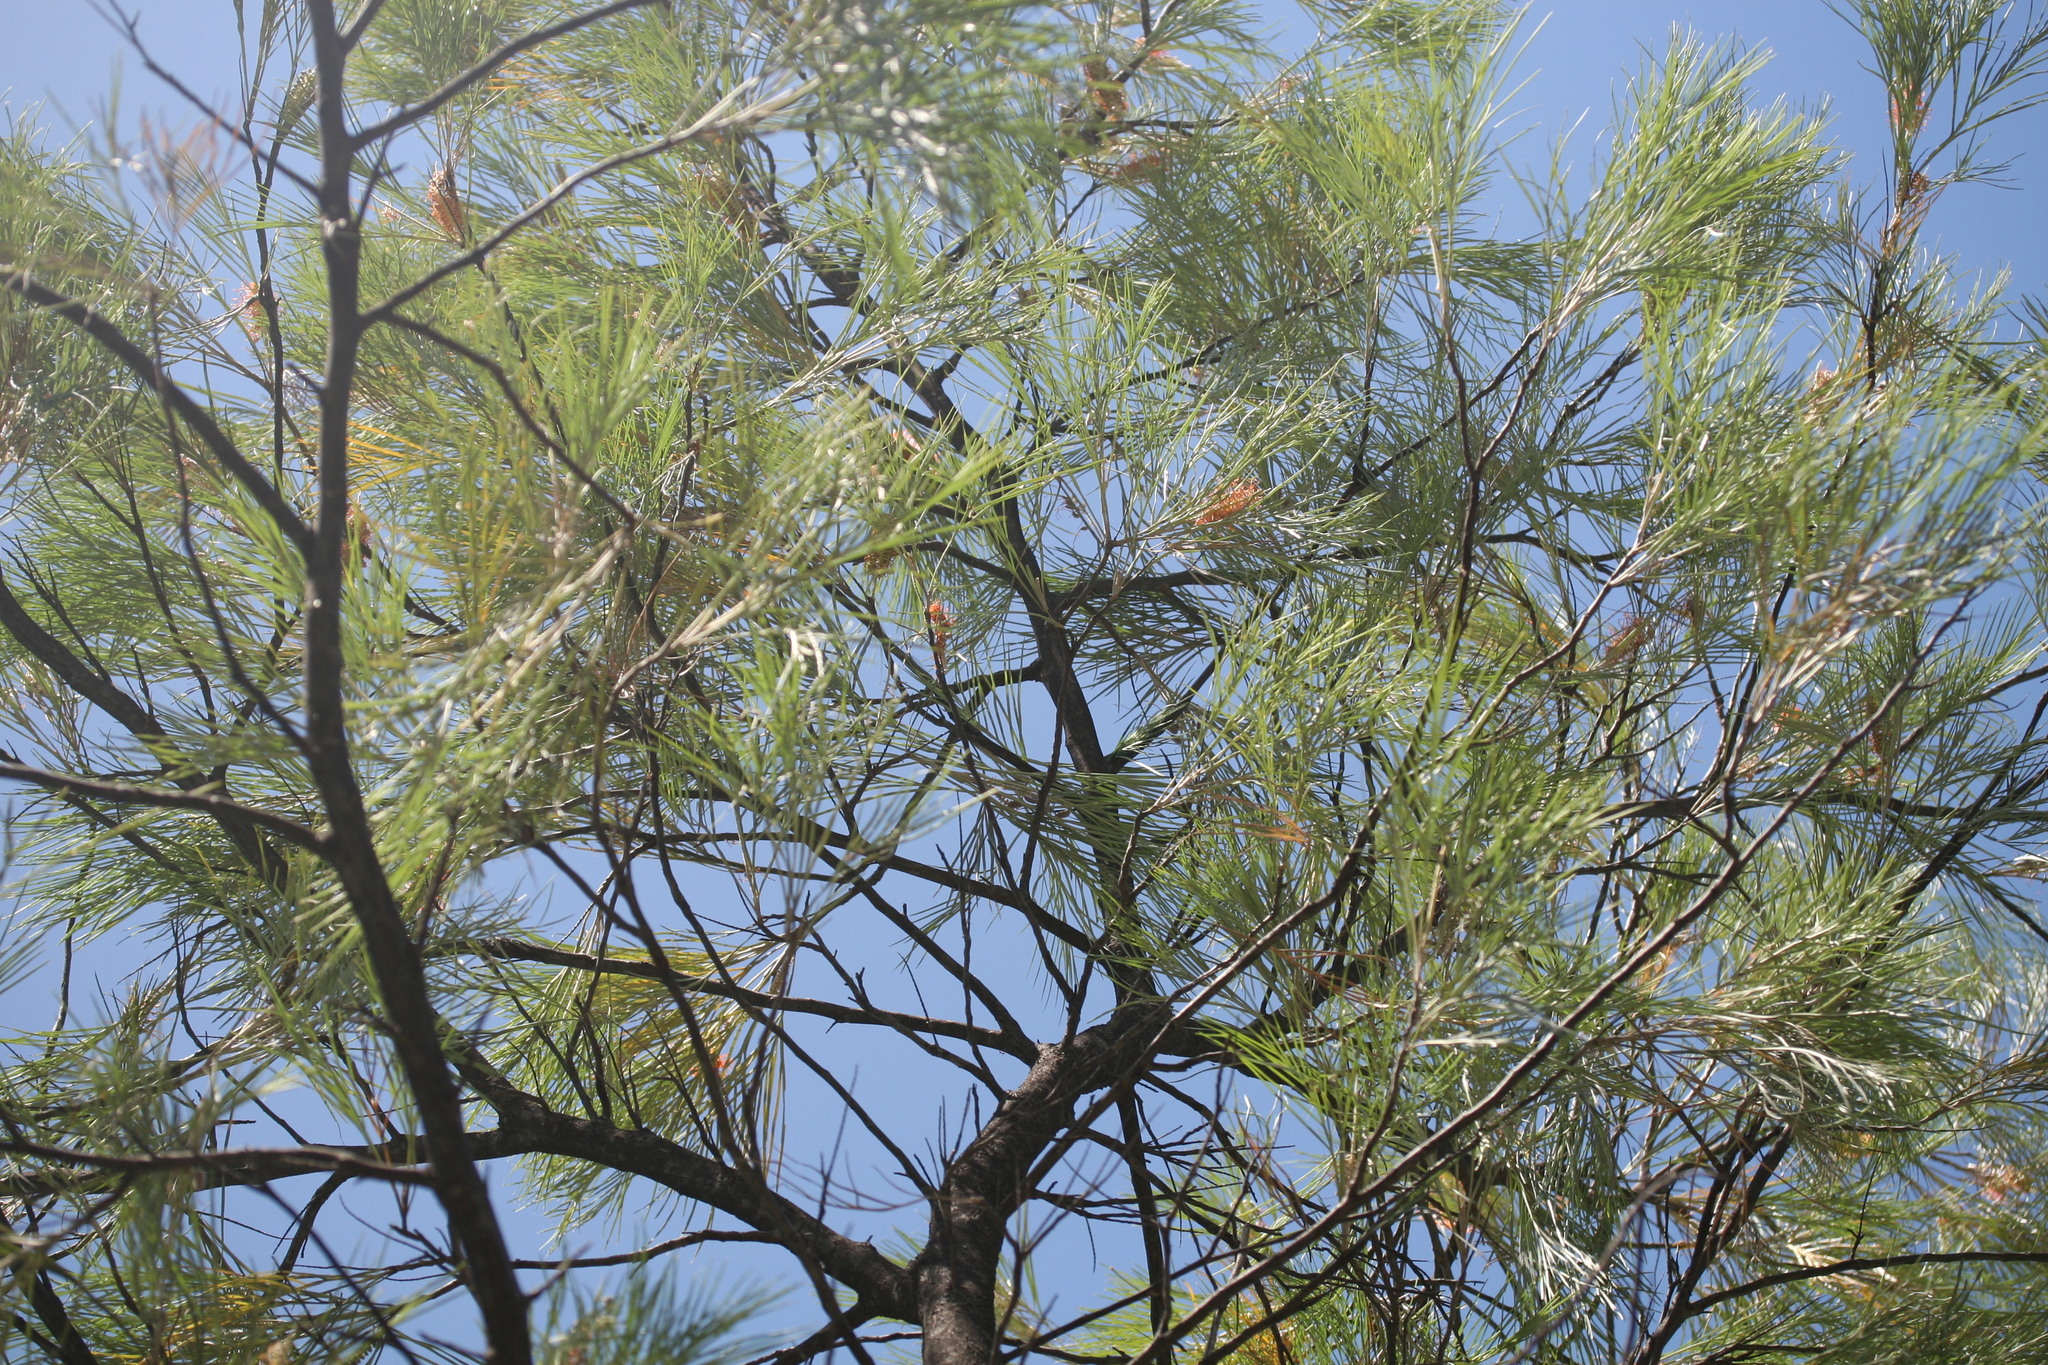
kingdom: Plantae
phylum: Tracheophyta
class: Magnoliopsida
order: Proteales
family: Proteaceae
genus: Grevillea
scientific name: Grevillea pteridifolia
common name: Golden grevillea
